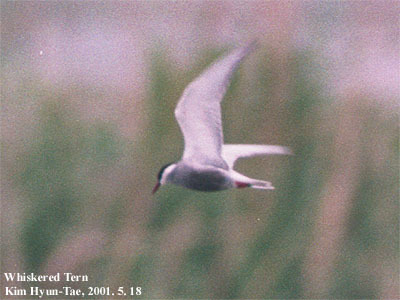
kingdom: Animalia
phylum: Chordata
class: Aves
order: Charadriiformes
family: Laridae
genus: Chlidonias
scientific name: Chlidonias hybrida
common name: Whiskered tern
